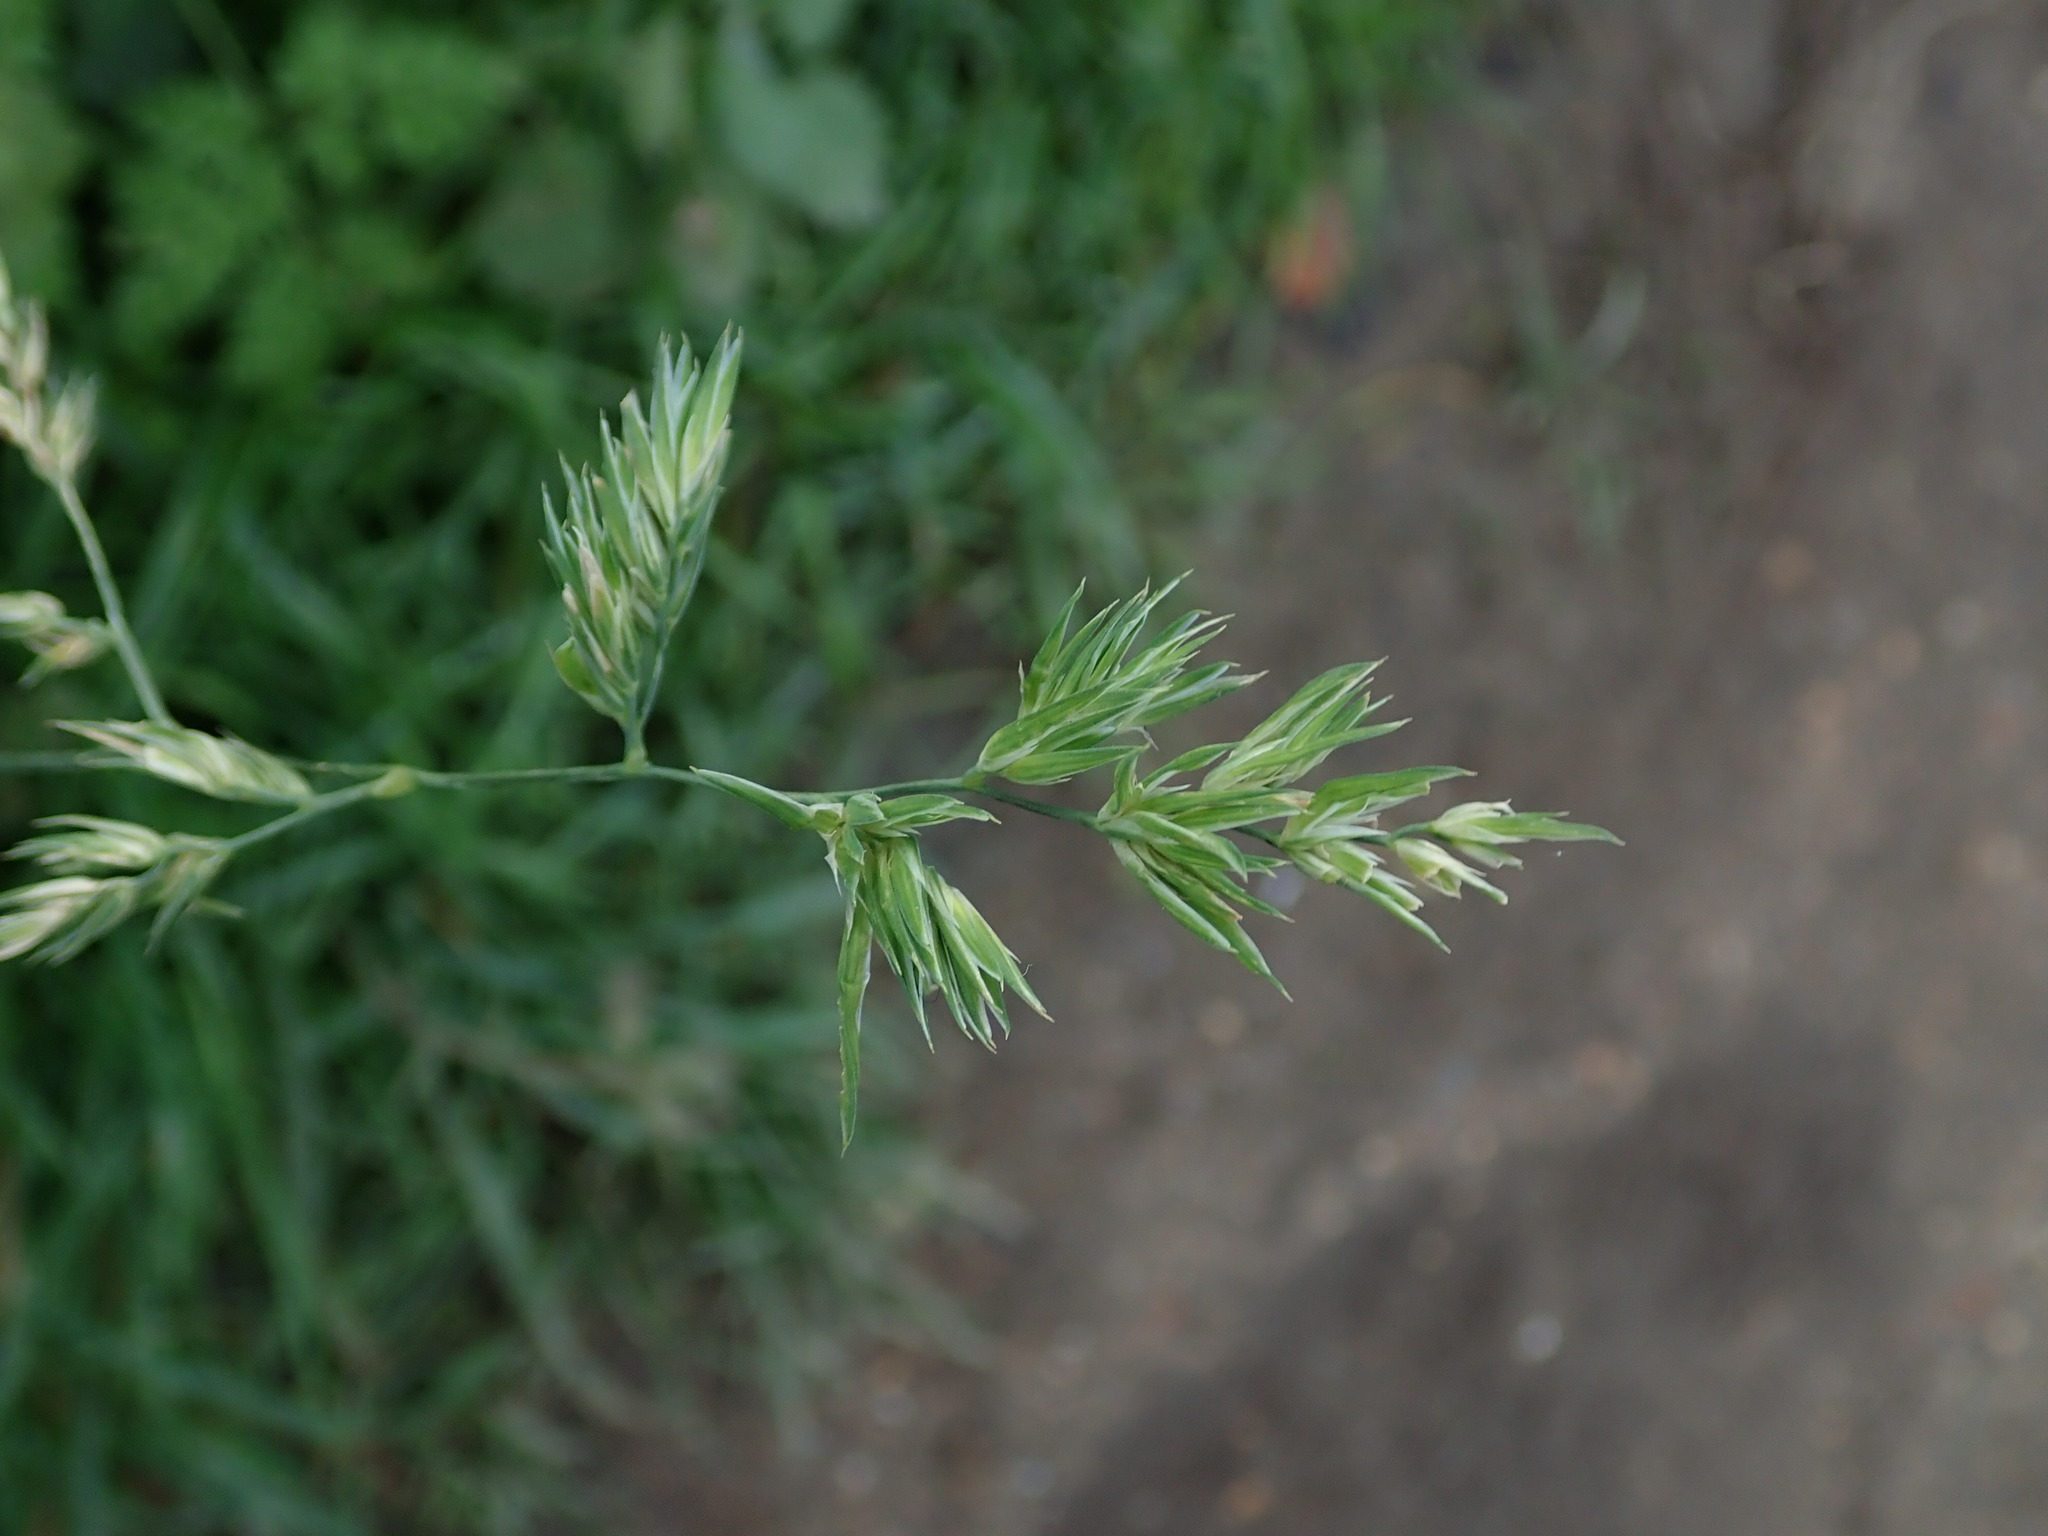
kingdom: Plantae
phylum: Tracheophyta
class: Liliopsida
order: Poales
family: Poaceae
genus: Dactylis
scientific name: Dactylis glomerata
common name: Orchardgrass
